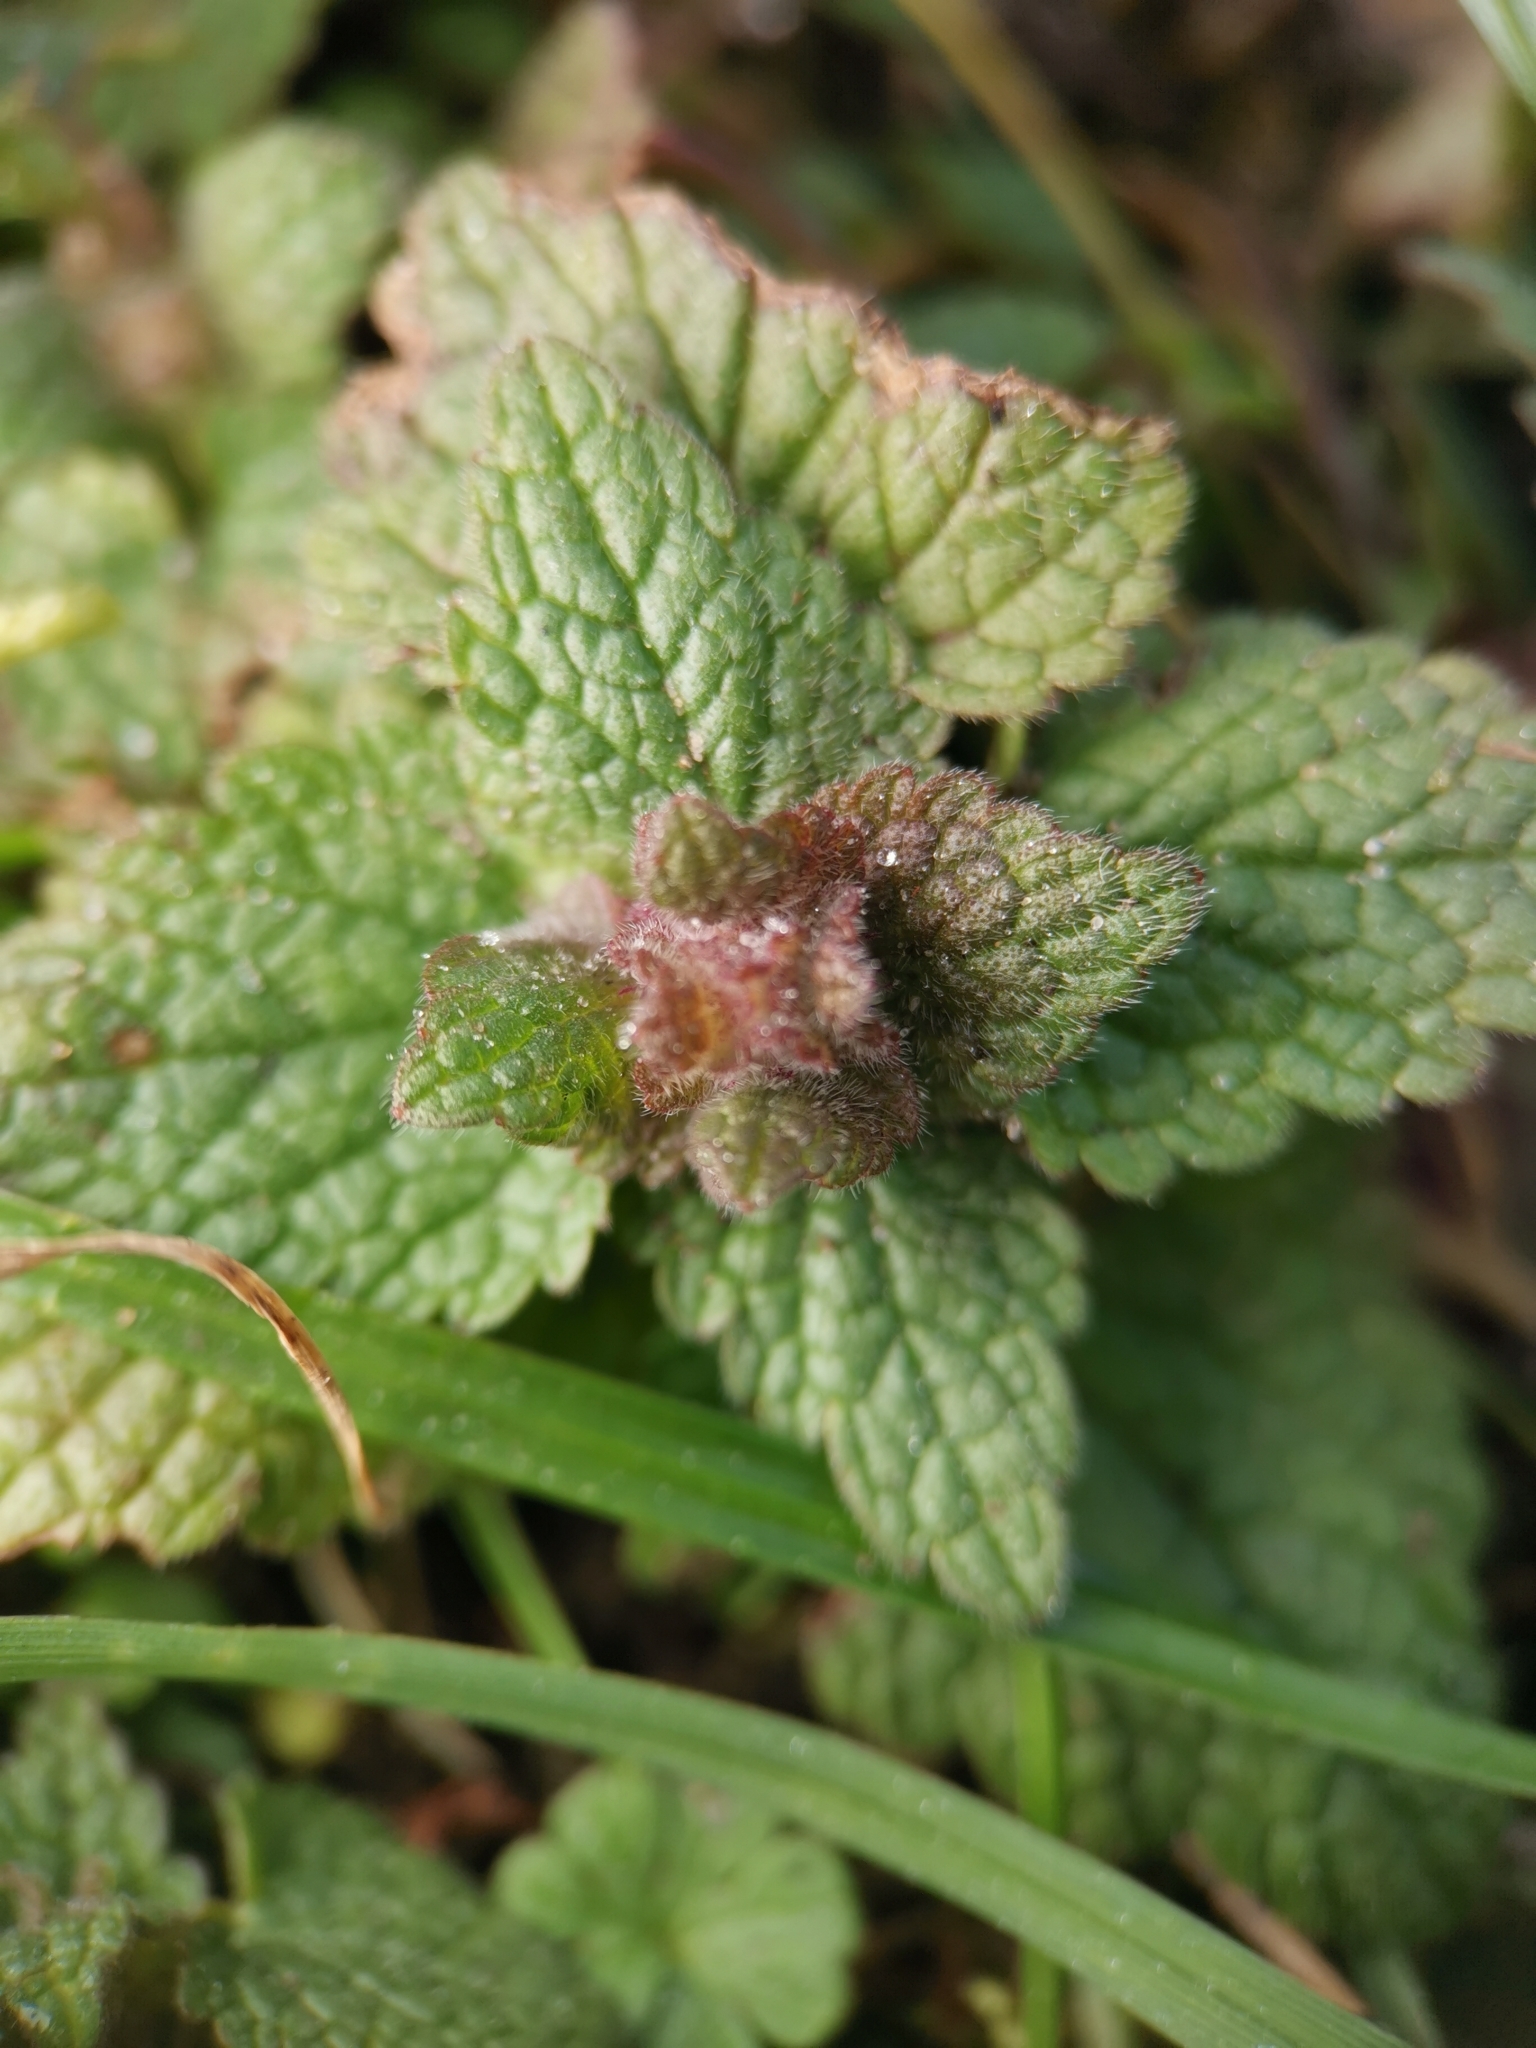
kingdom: Plantae
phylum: Tracheophyta
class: Magnoliopsida
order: Lamiales
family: Lamiaceae
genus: Lamium
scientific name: Lamium purpureum
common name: Red dead-nettle
